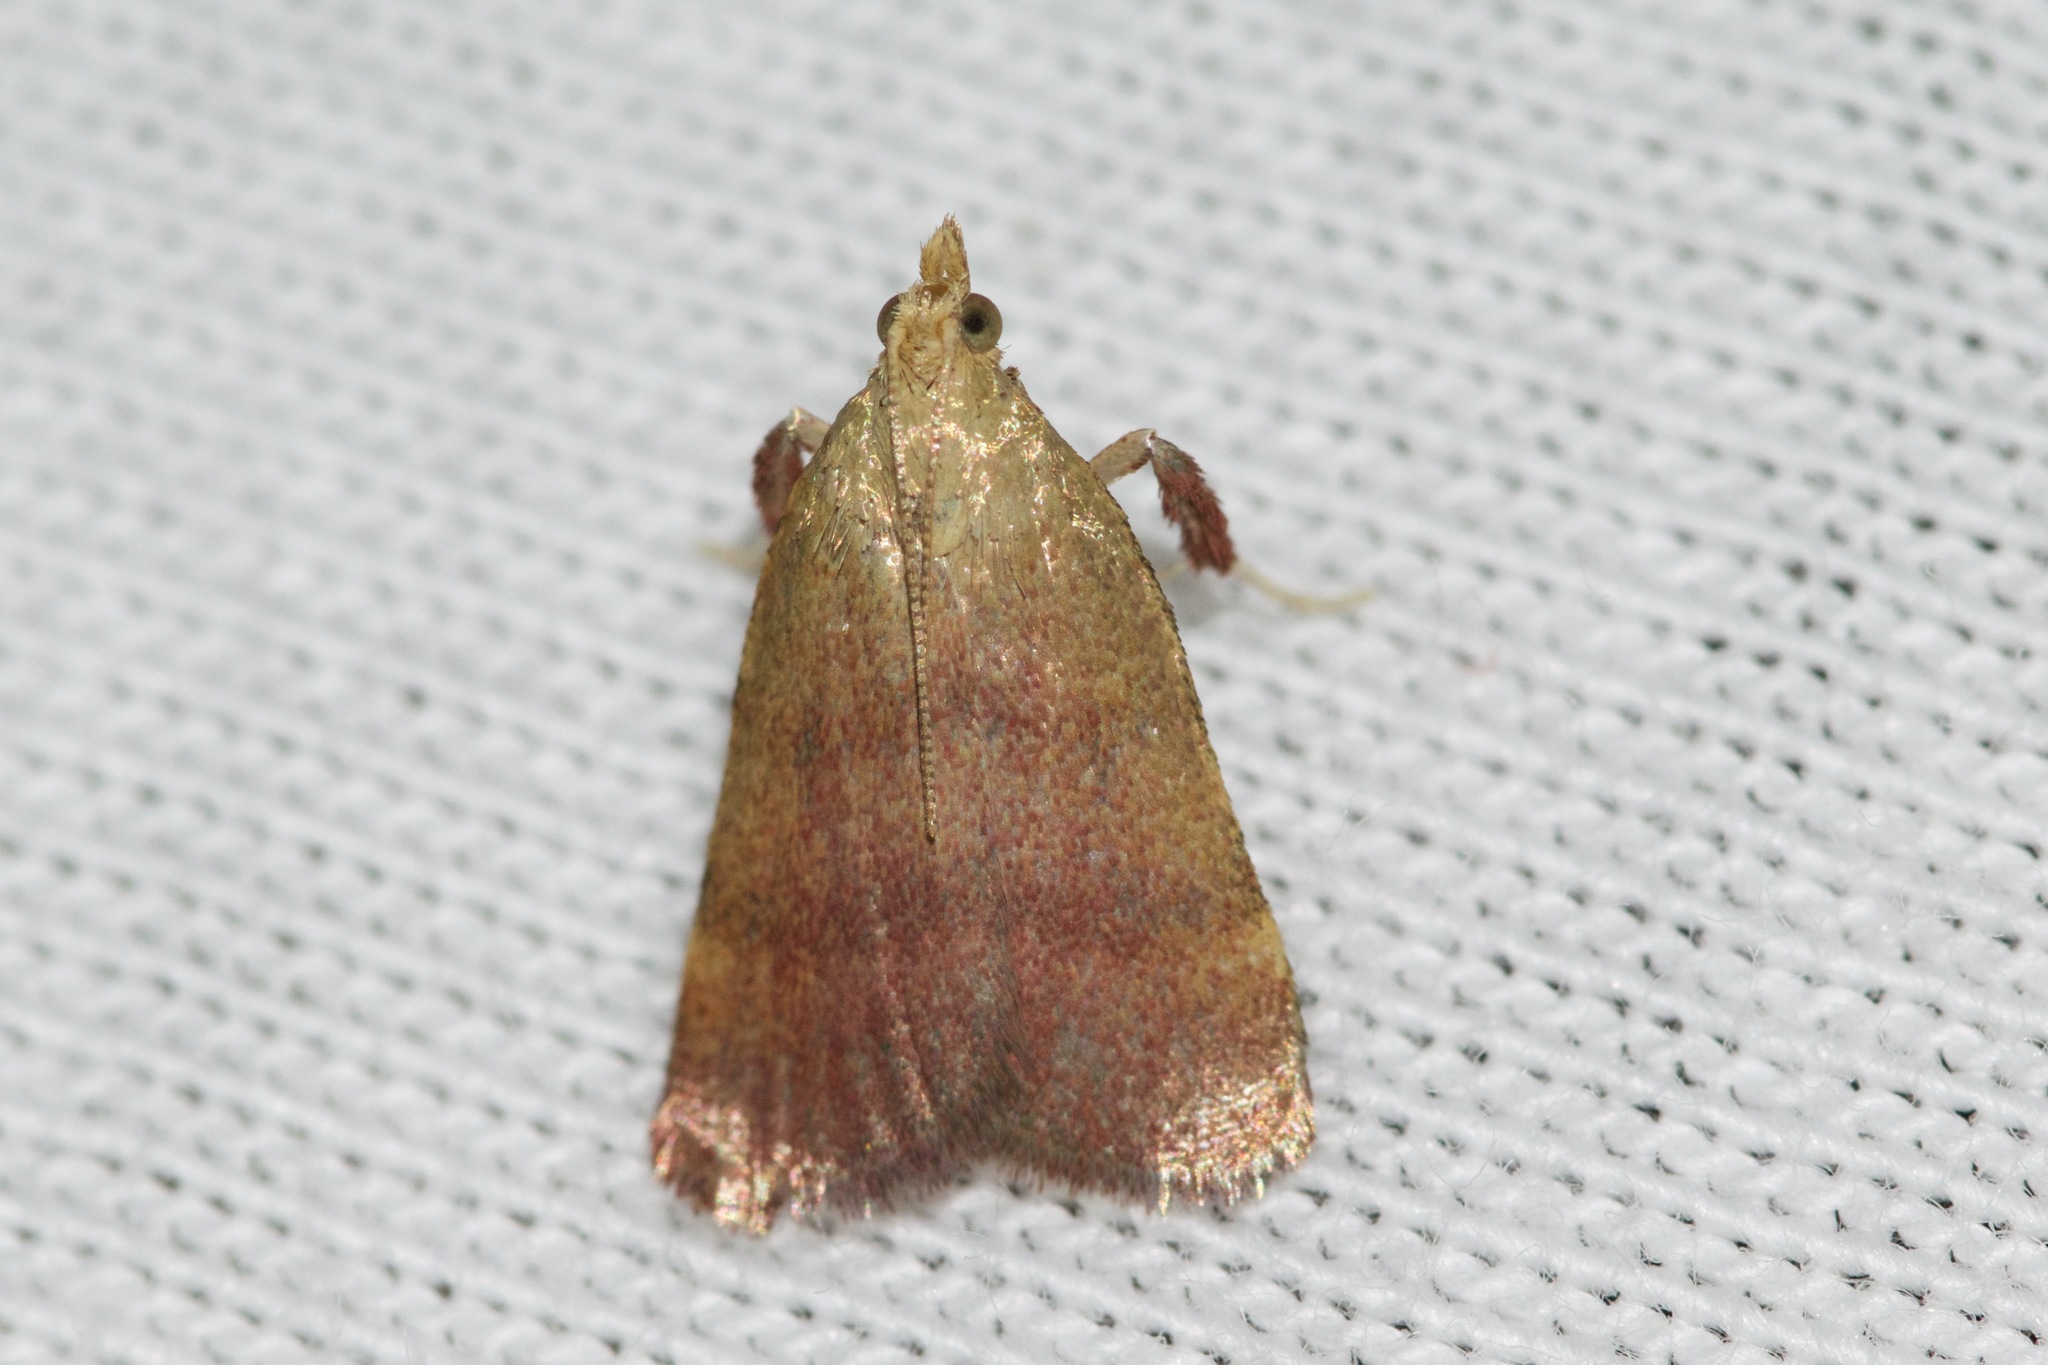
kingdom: Animalia
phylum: Arthropoda
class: Insecta
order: Lepidoptera
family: Pyralidae
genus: Condylolomia
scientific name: Condylolomia participialis
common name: Drab condylolomia moth
